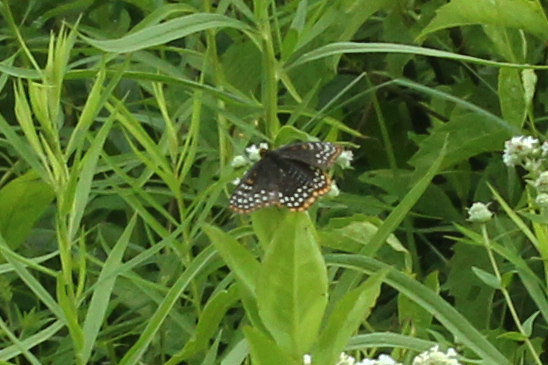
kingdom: Animalia
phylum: Arthropoda
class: Insecta
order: Lepidoptera
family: Nymphalidae
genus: Euphydryas
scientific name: Euphydryas phaeton
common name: Baltimore checkerspot
